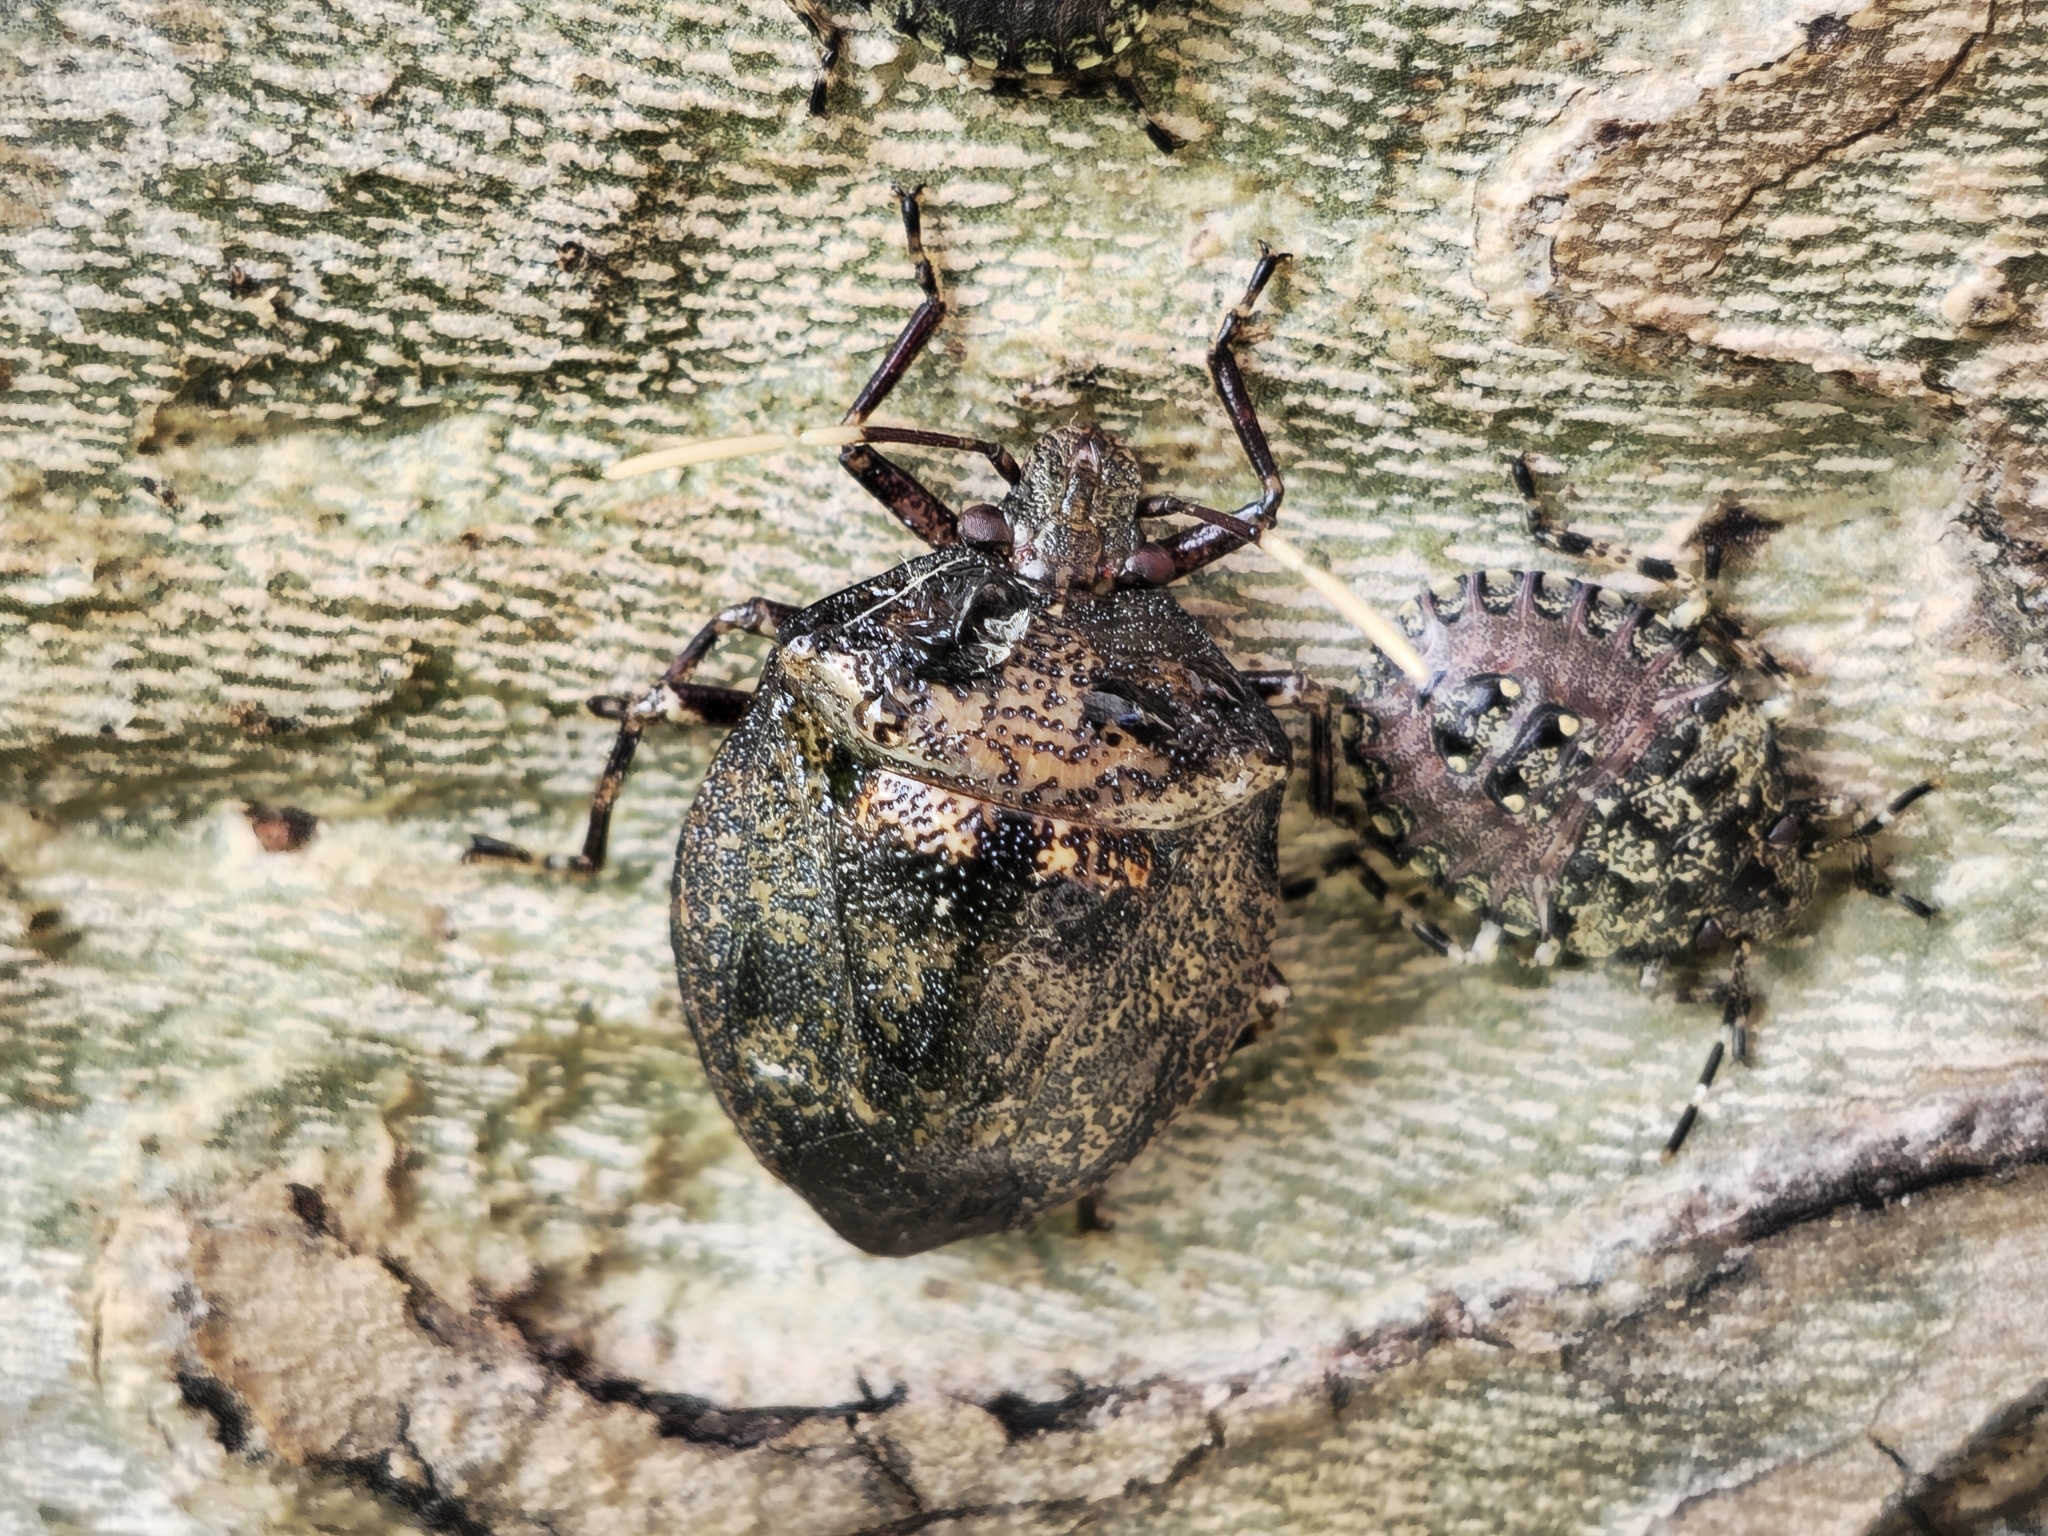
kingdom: Animalia
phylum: Arthropoda
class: Insecta
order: Hemiptera
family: Pentatomidae
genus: Antiteuchus
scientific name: Antiteuchus mixtus
